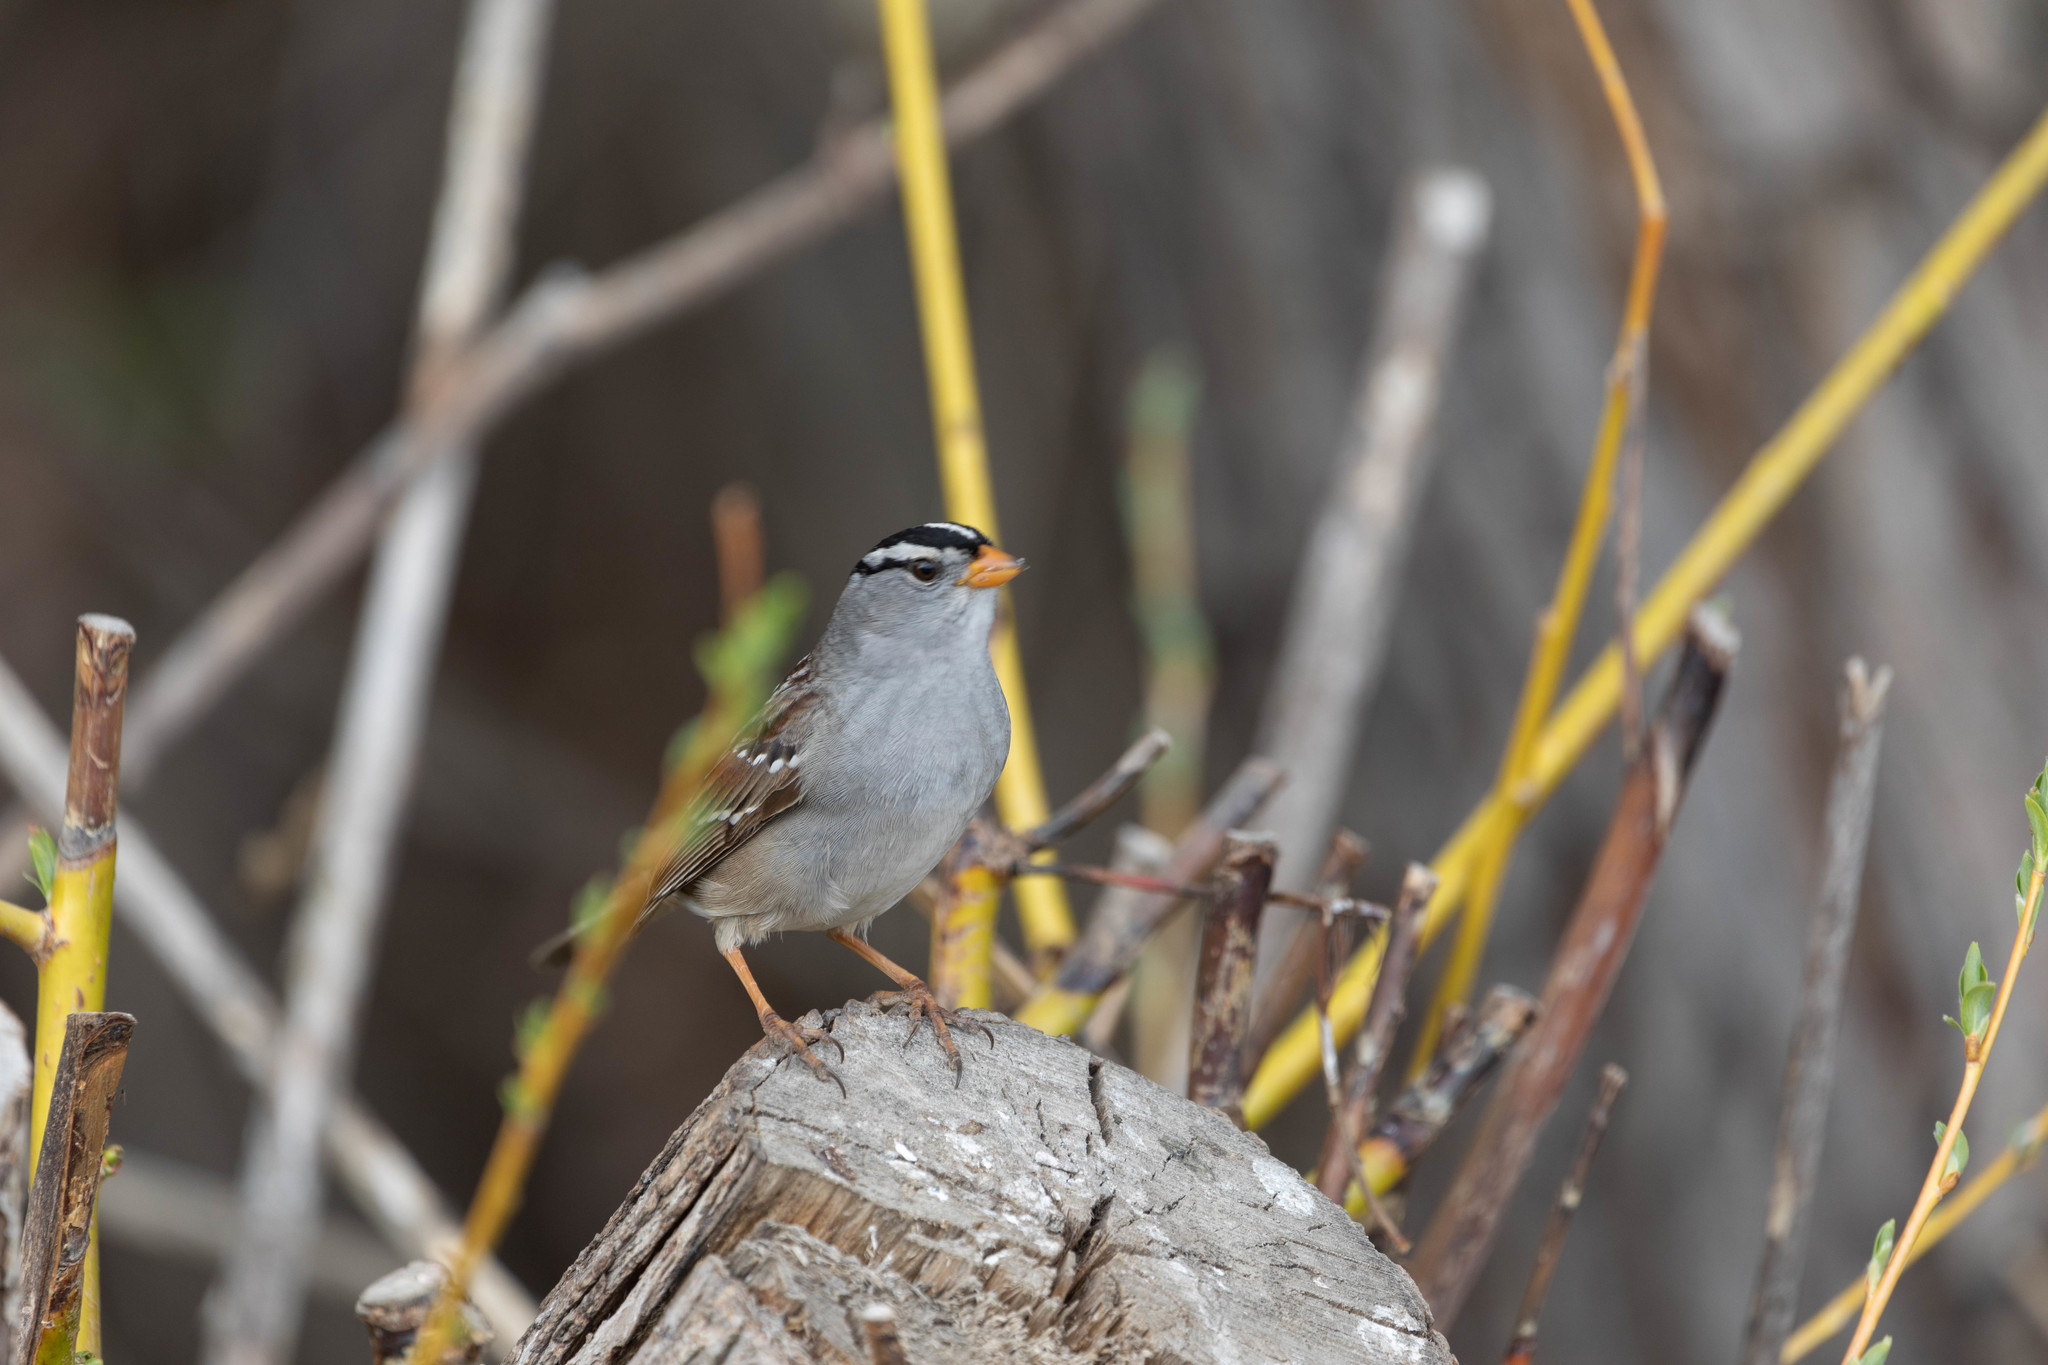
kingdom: Animalia
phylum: Chordata
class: Aves
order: Passeriformes
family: Passerellidae
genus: Zonotrichia
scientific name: Zonotrichia leucophrys
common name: White-crowned sparrow
